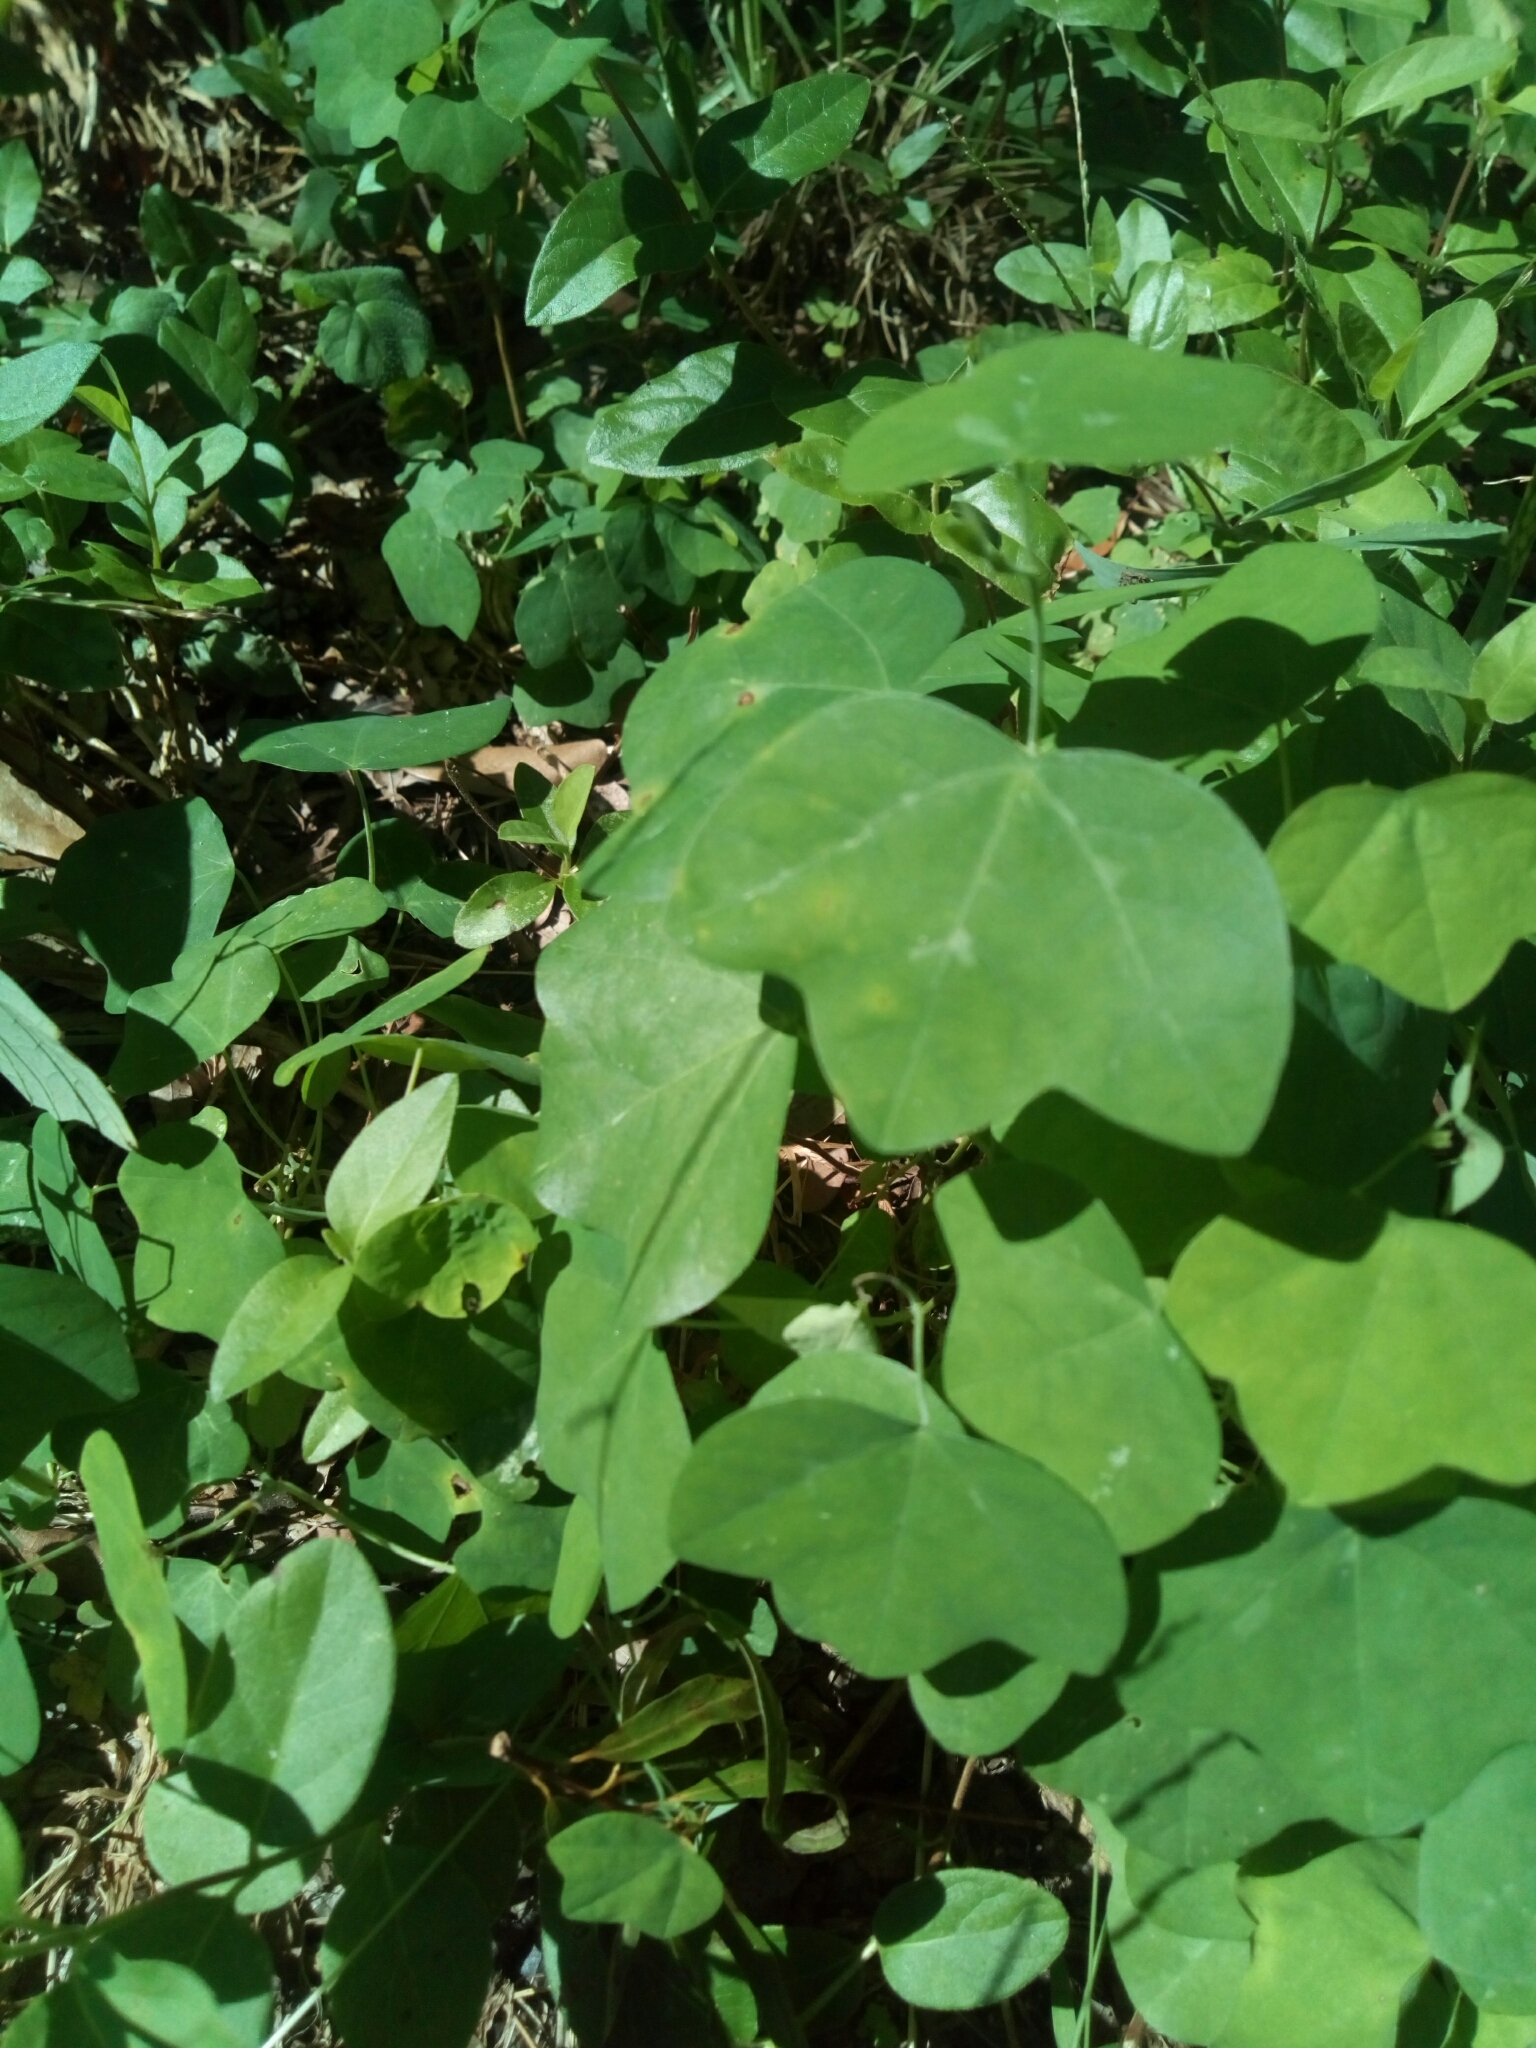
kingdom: Plantae
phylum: Tracheophyta
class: Magnoliopsida
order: Malpighiales
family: Passifloraceae
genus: Passiflora
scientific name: Passiflora lutea
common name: Yellow passionflower
